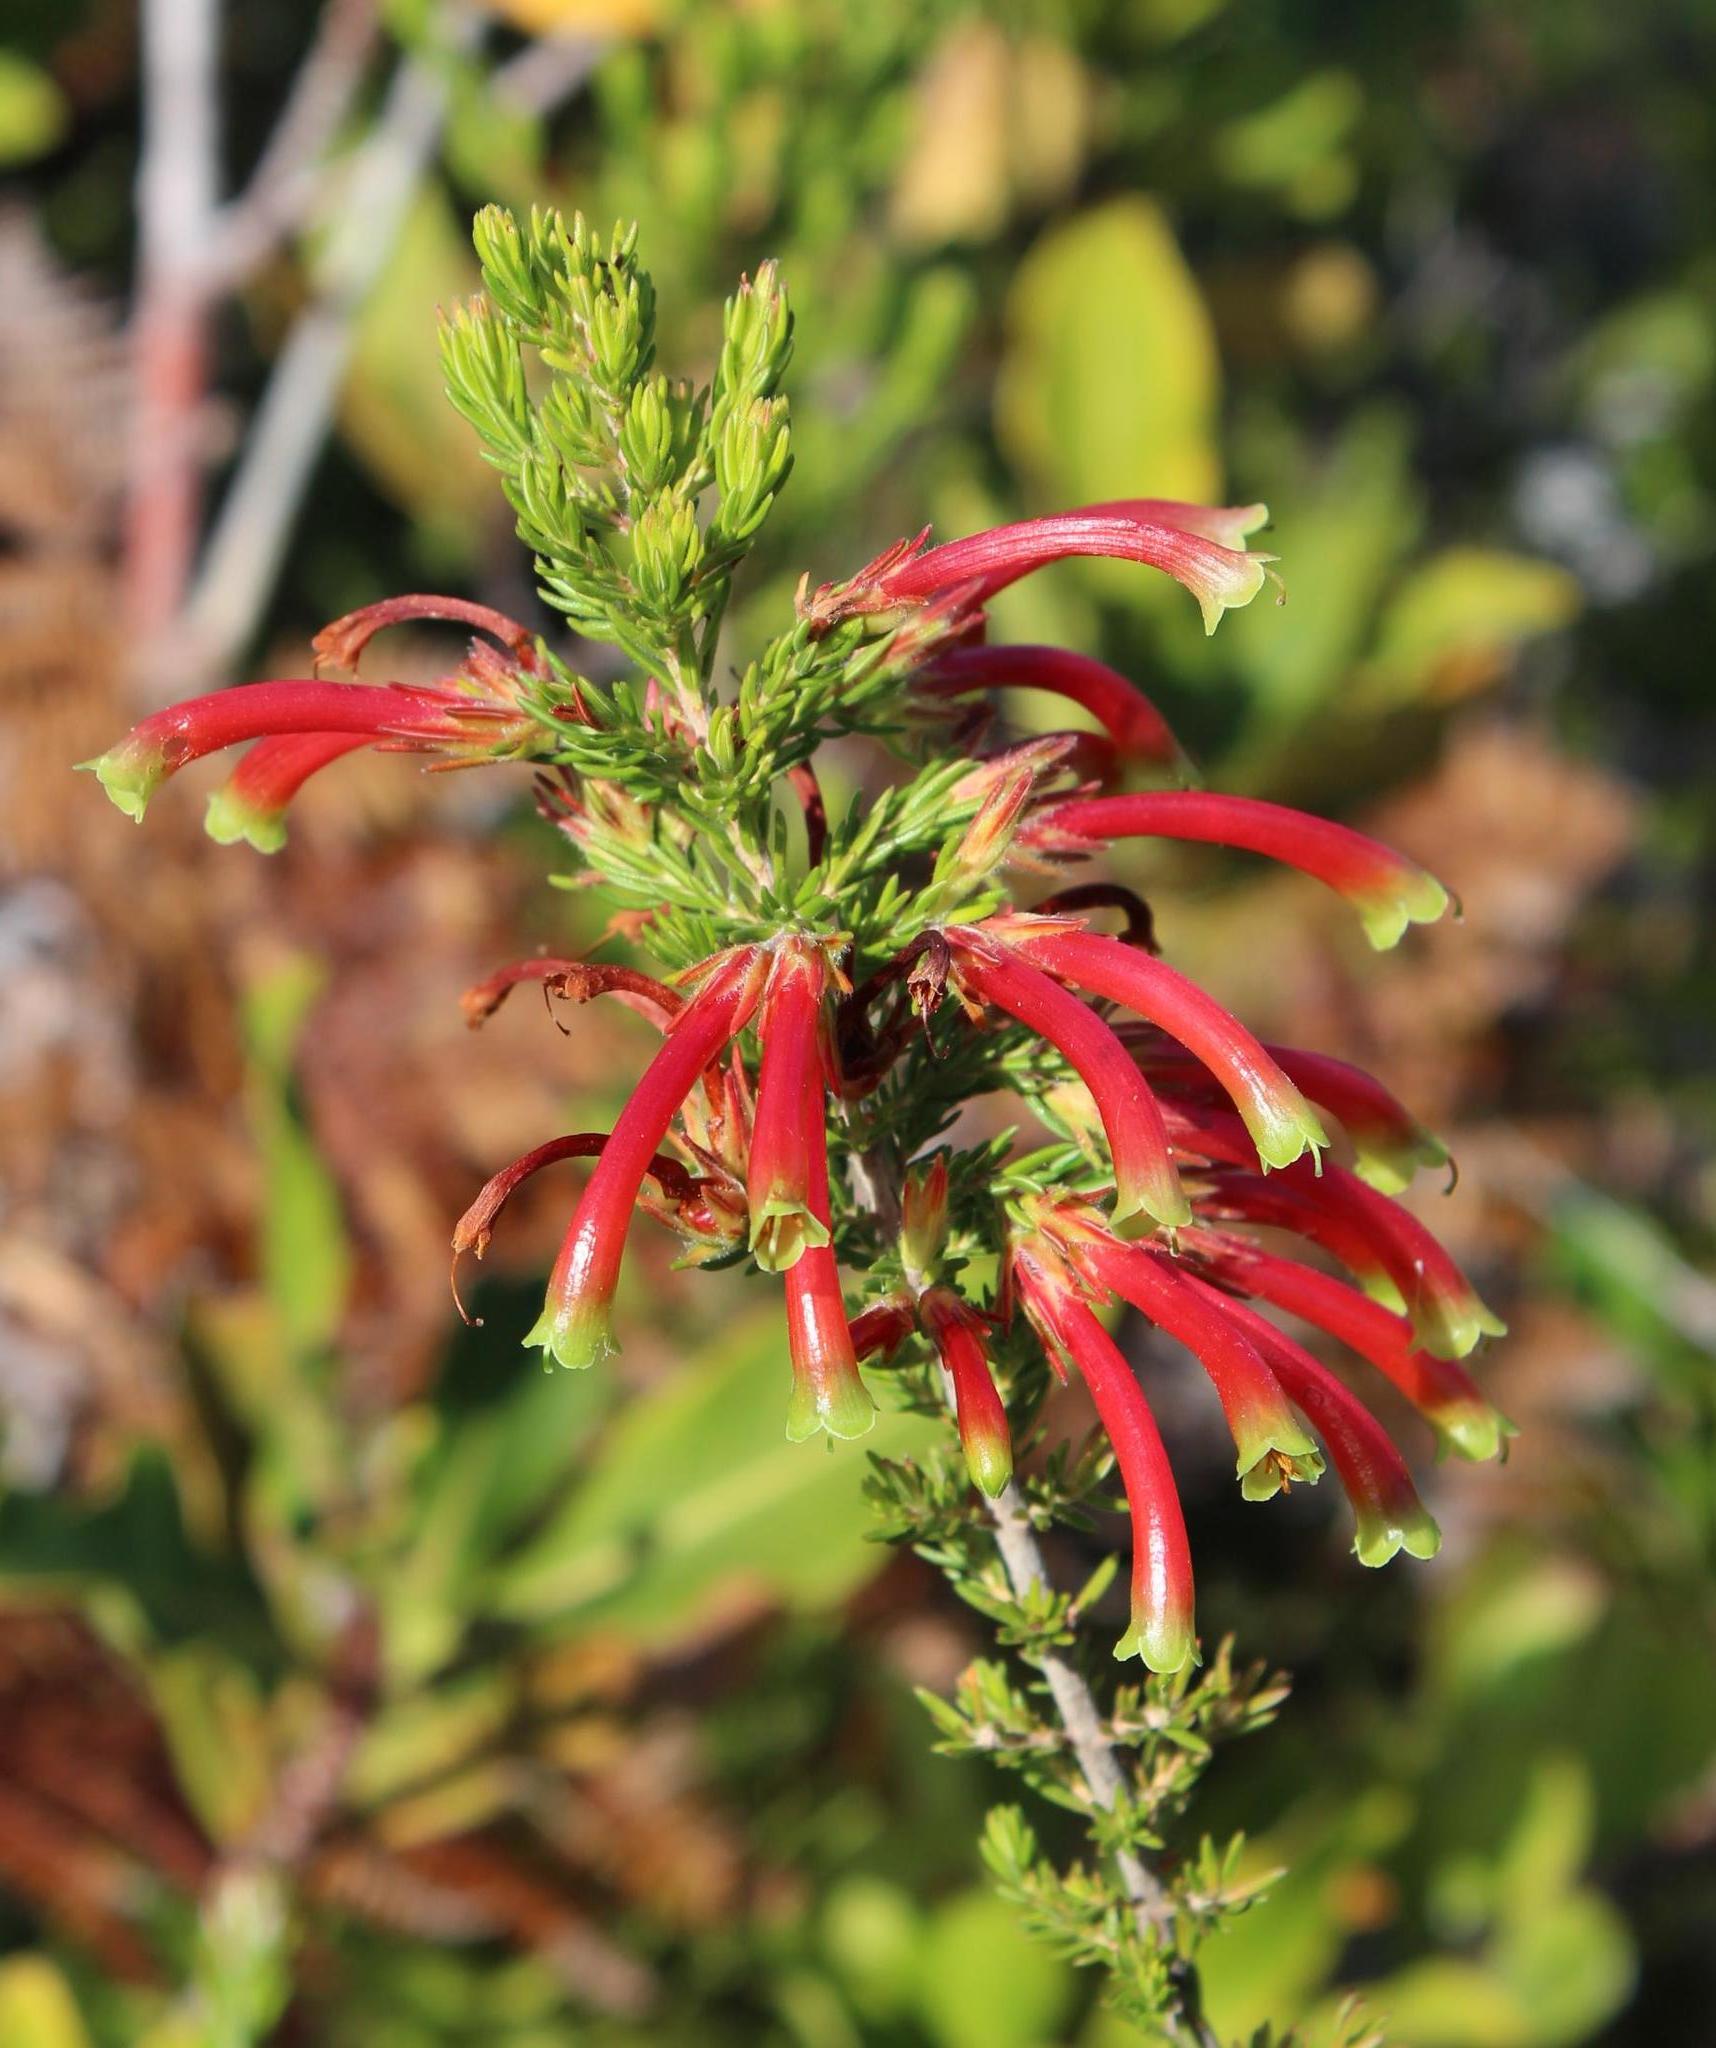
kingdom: Plantae
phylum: Tracheophyta
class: Magnoliopsida
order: Ericales
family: Ericaceae
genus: Erica
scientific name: Erica discolor
